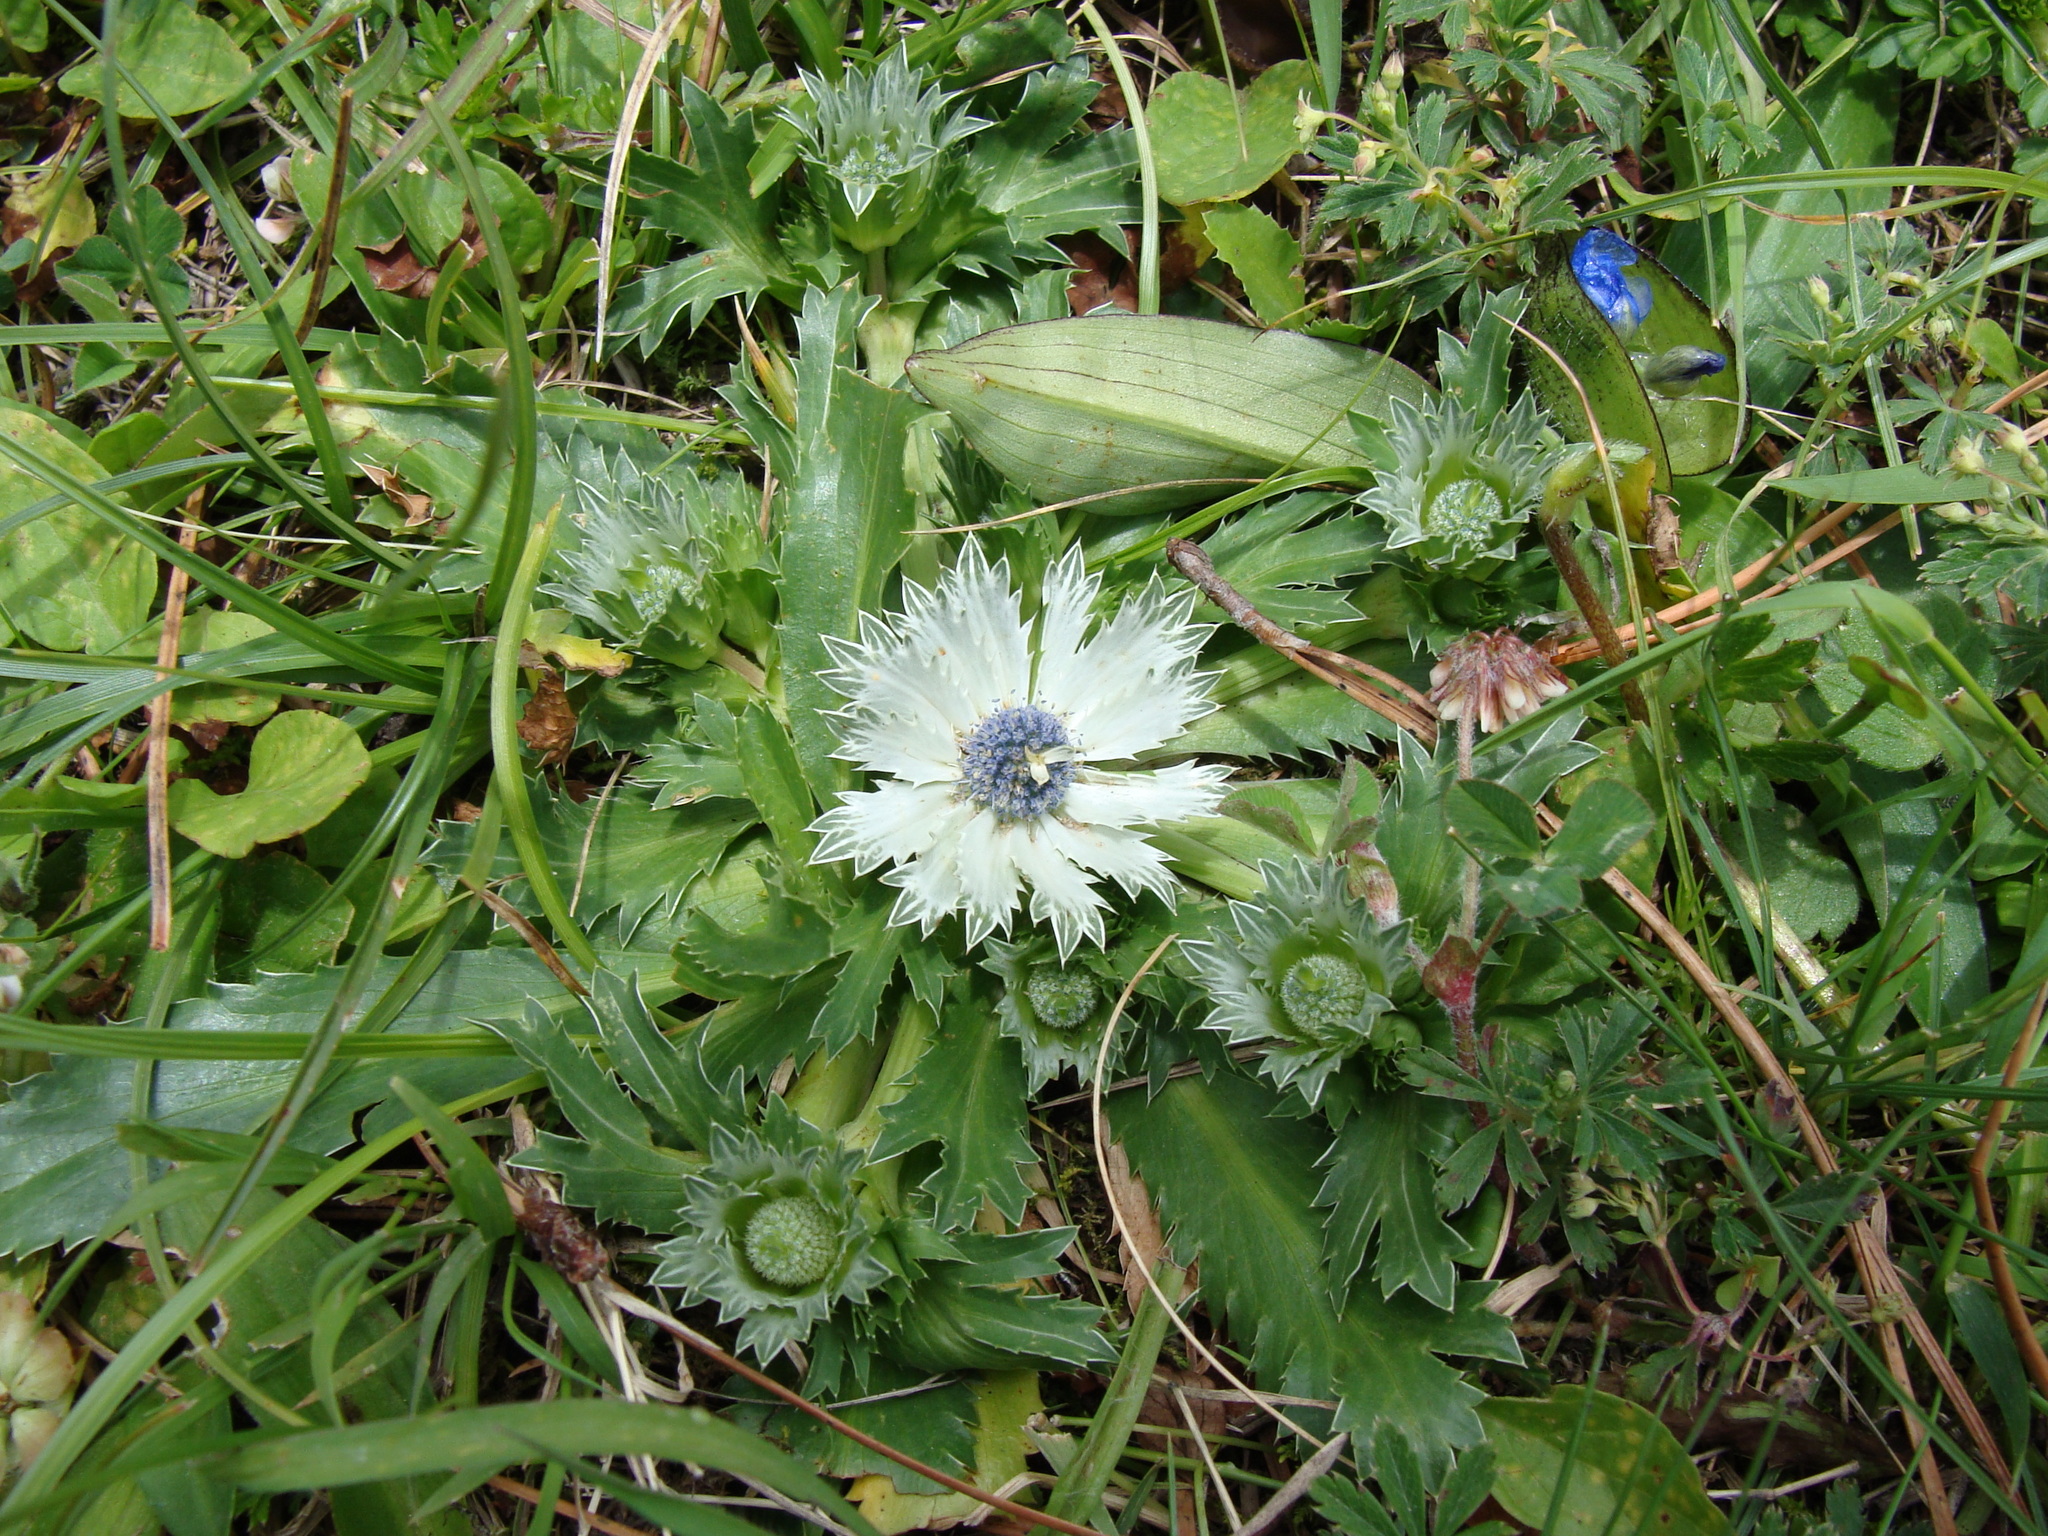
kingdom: Plantae
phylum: Tracheophyta
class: Magnoliopsida
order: Apiales
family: Apiaceae
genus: Eryngium
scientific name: Eryngium carlinae
